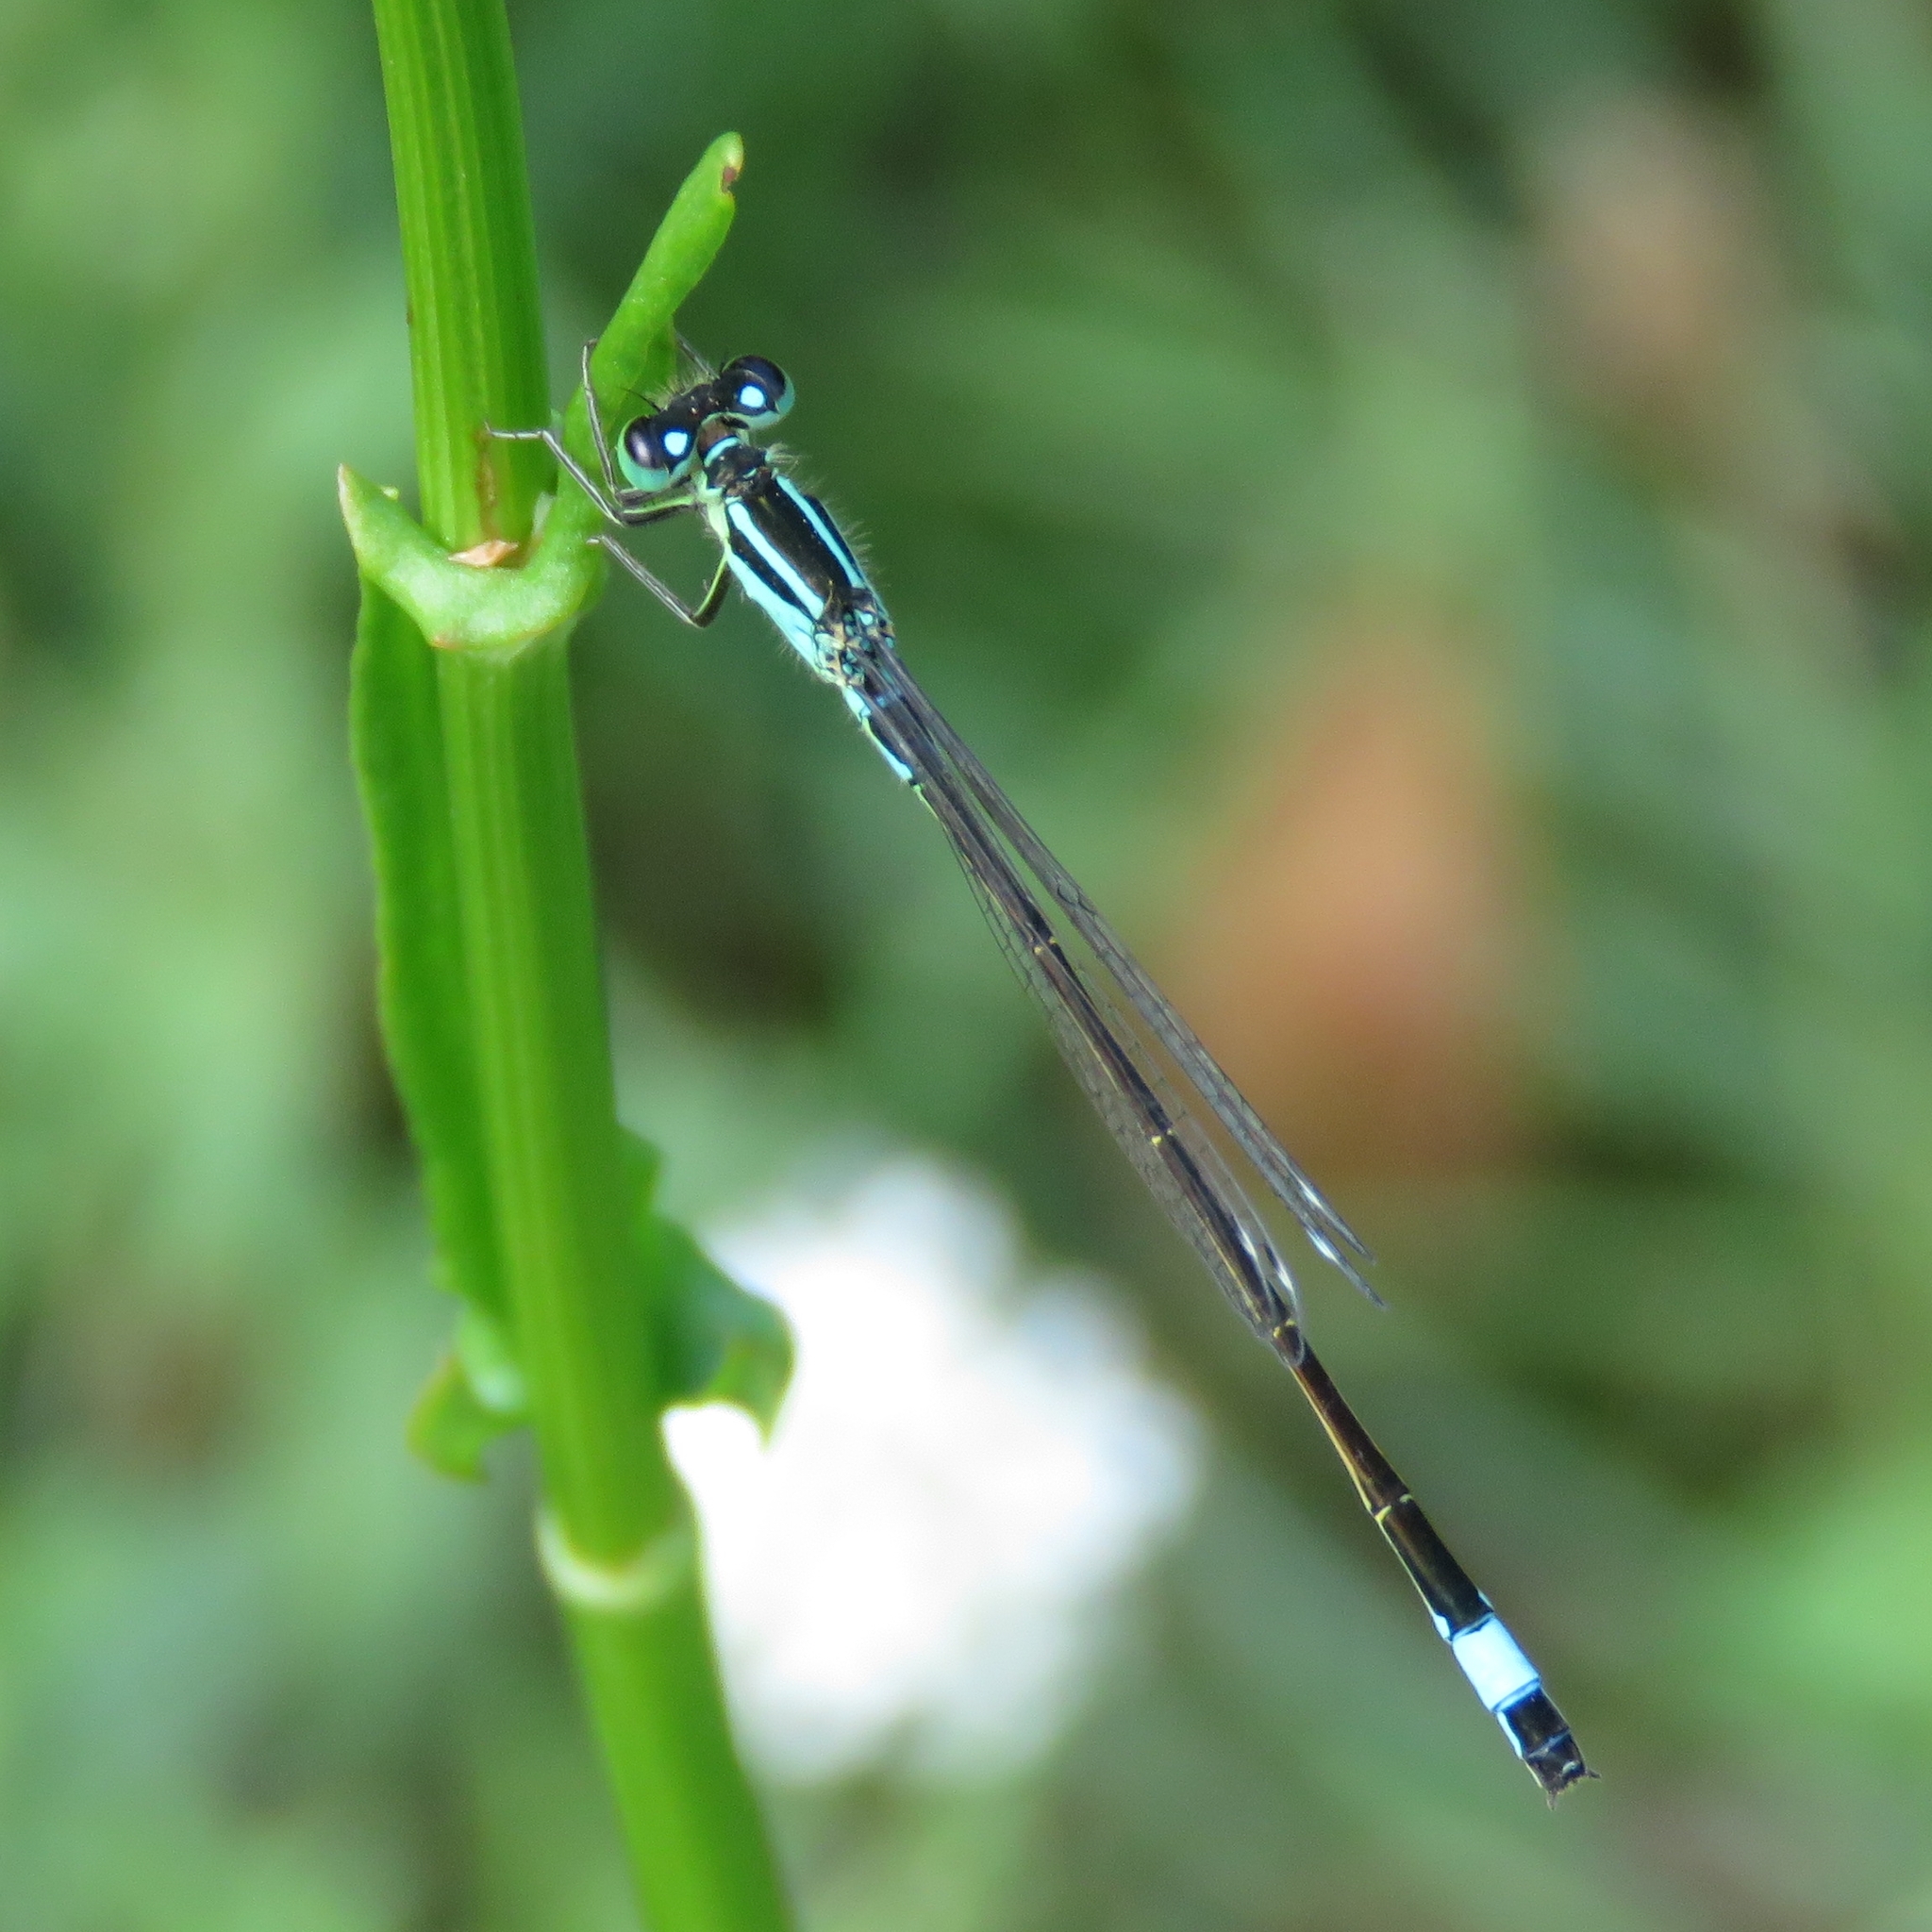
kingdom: Animalia
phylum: Arthropoda
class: Insecta
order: Odonata
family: Coenagrionidae
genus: Ischnura
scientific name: Ischnura elegans
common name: Blue-tailed damselfly
